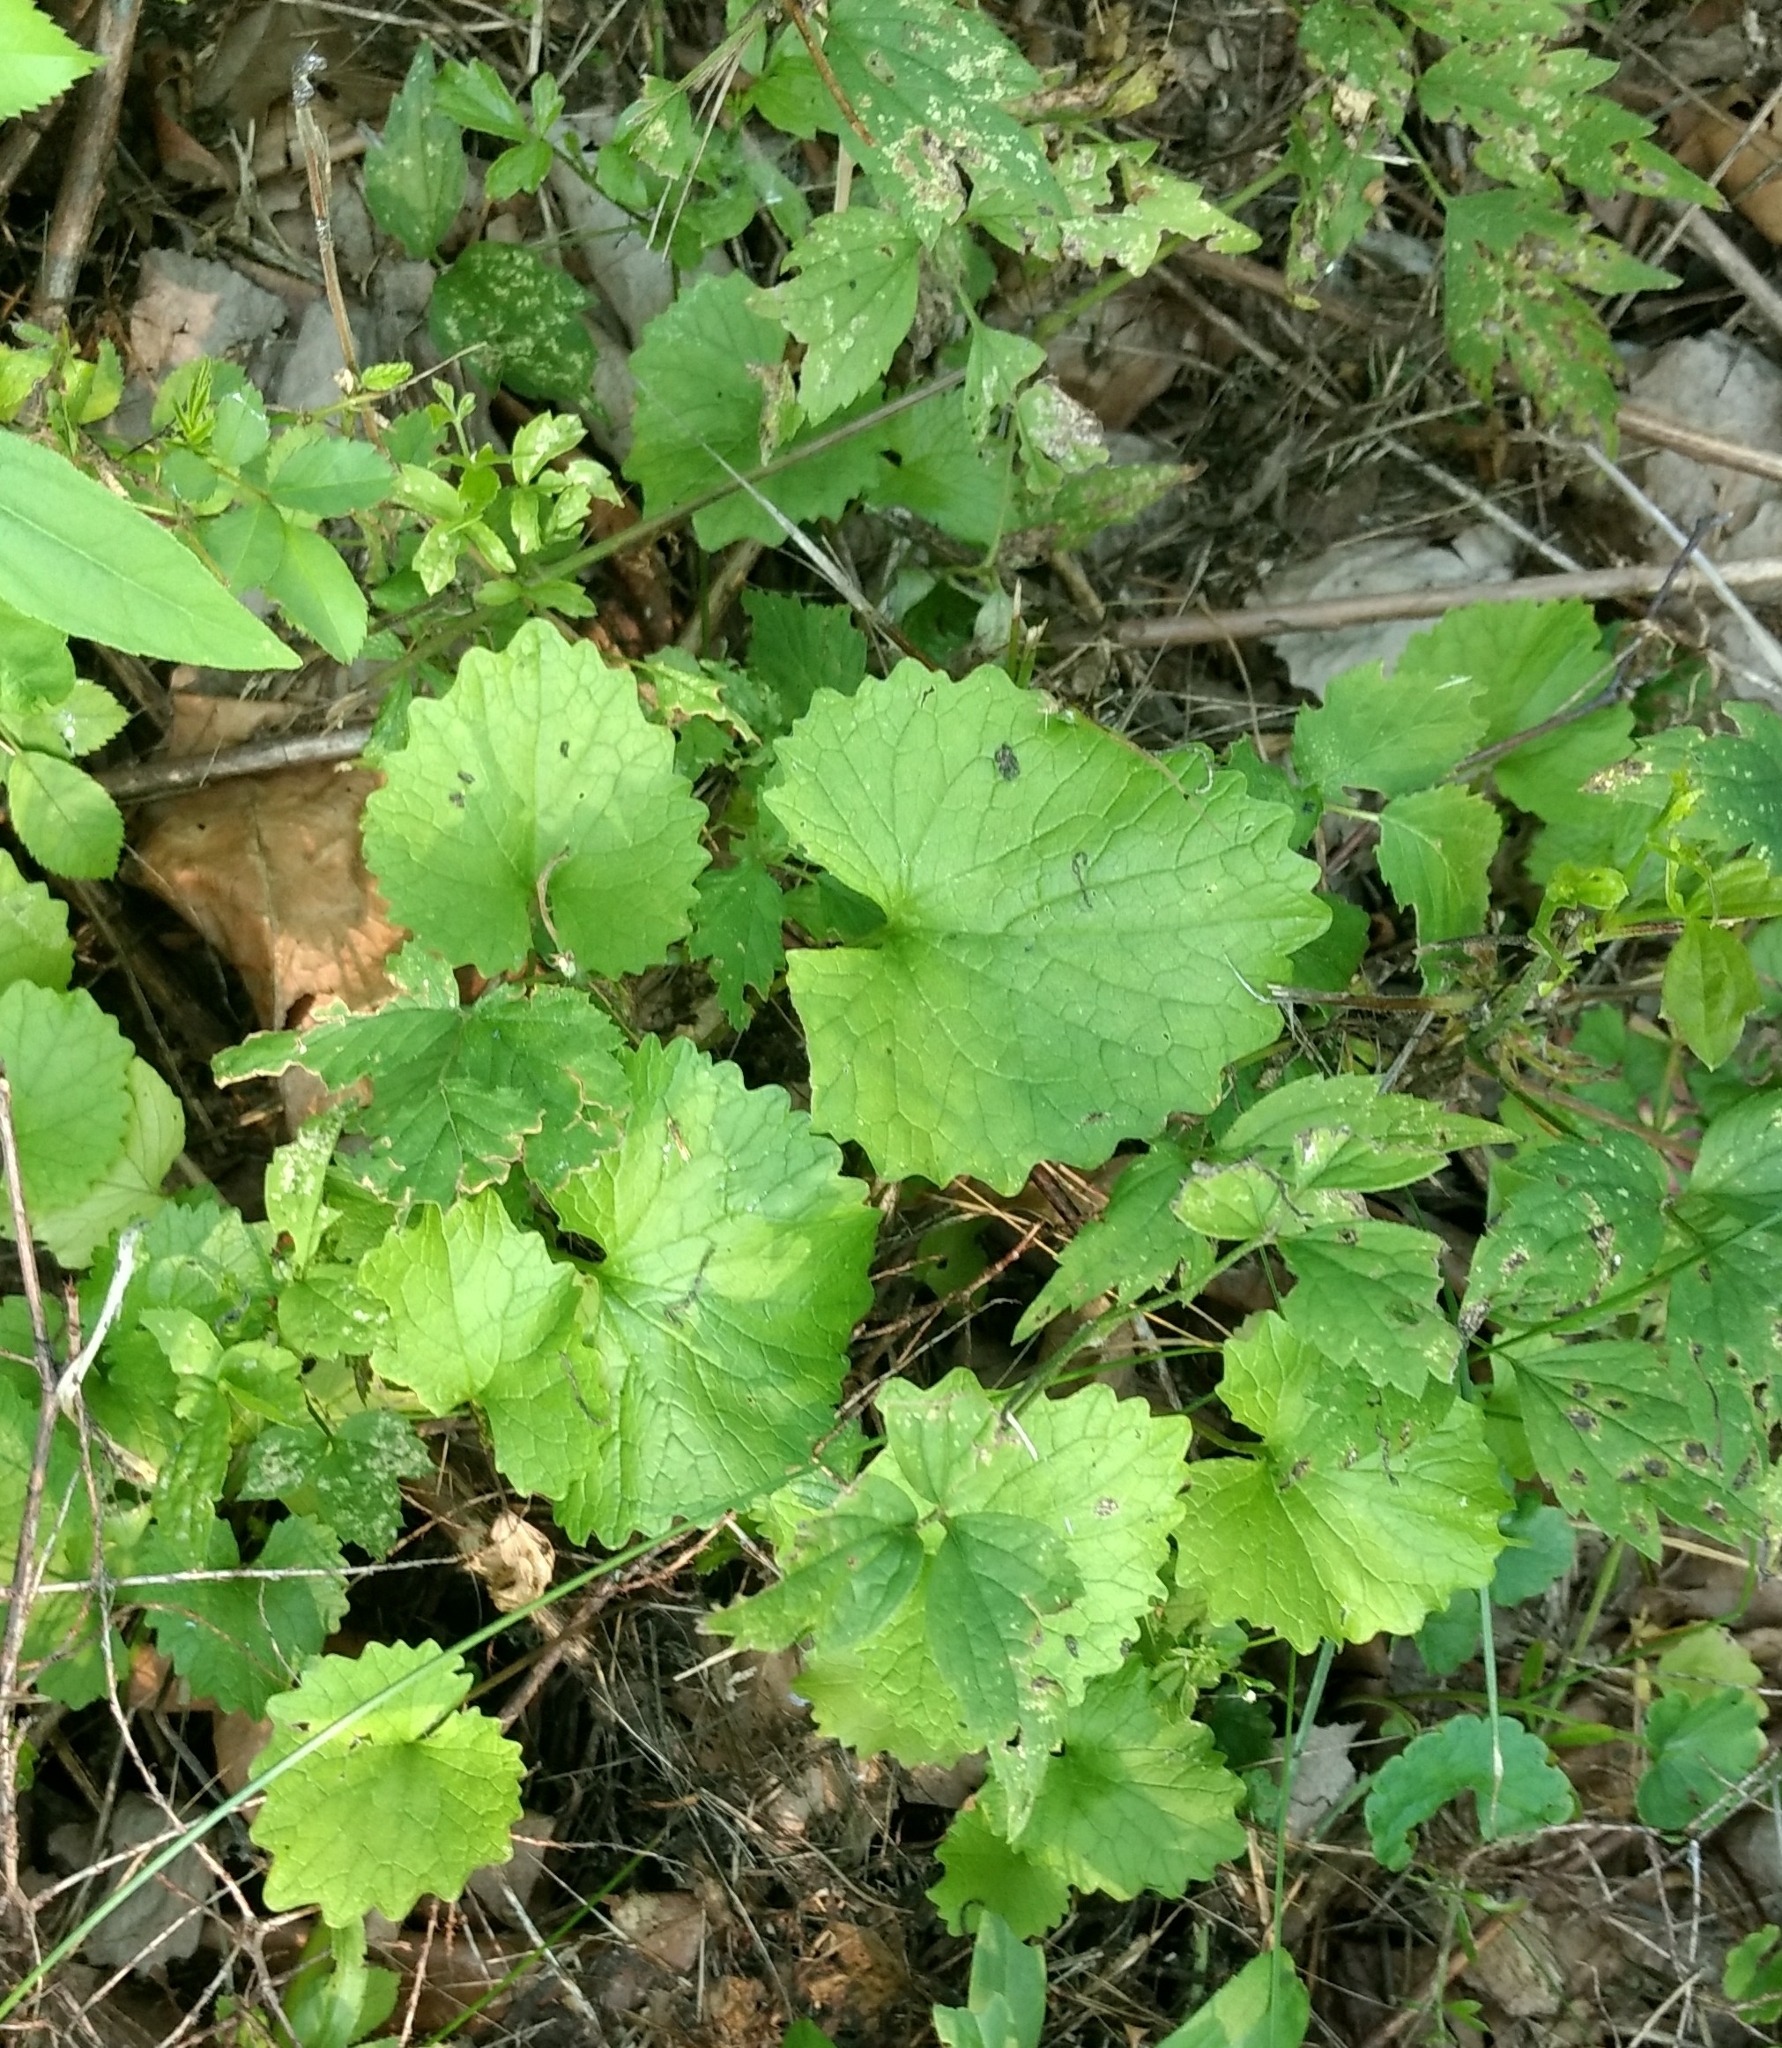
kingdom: Plantae
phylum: Tracheophyta
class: Magnoliopsida
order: Brassicales
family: Brassicaceae
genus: Alliaria
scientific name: Alliaria petiolata
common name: Garlic mustard
